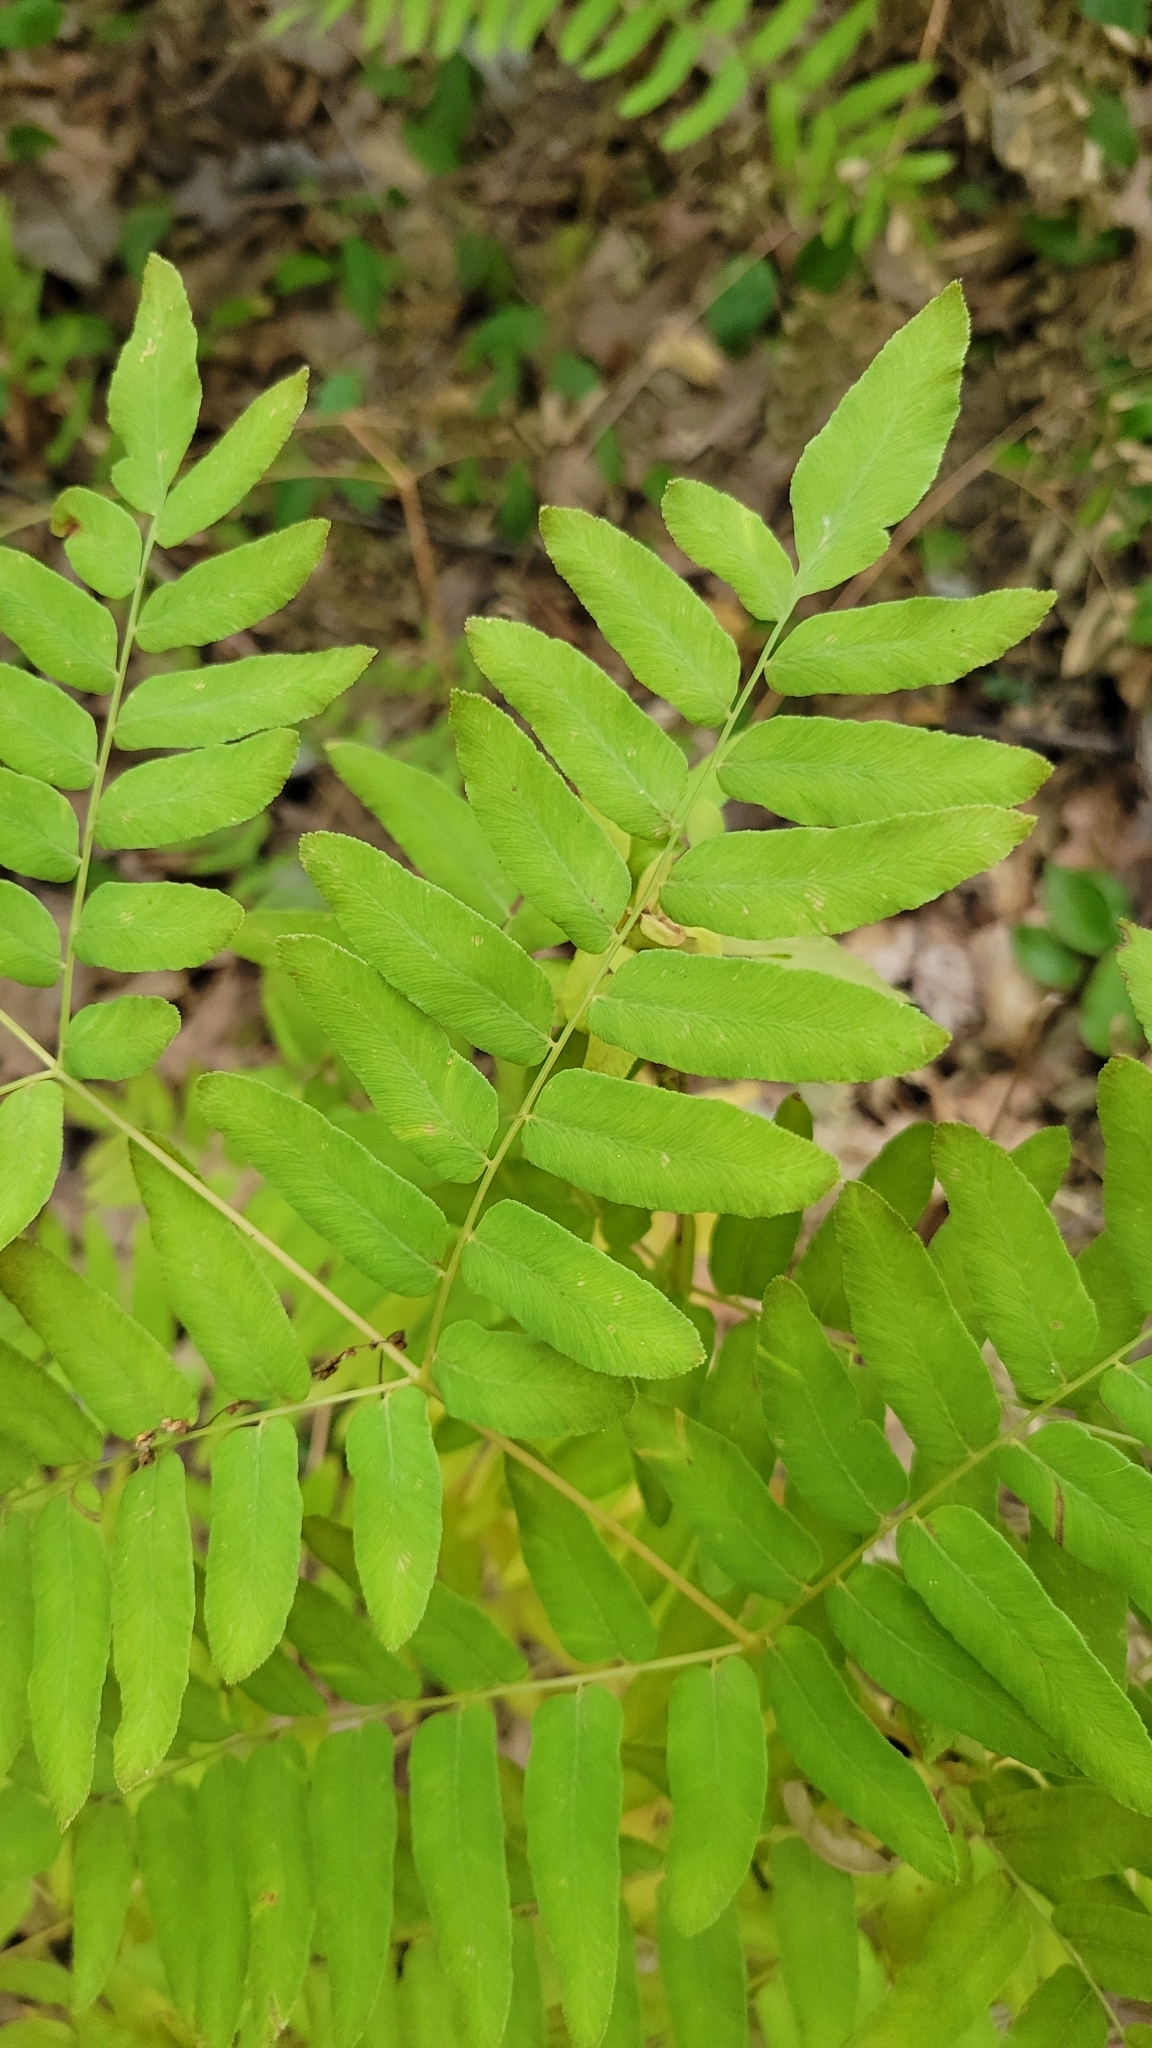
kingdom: Plantae
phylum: Tracheophyta
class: Polypodiopsida
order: Osmundales
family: Osmundaceae
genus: Osmunda
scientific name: Osmunda spectabilis
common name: American royal fern
